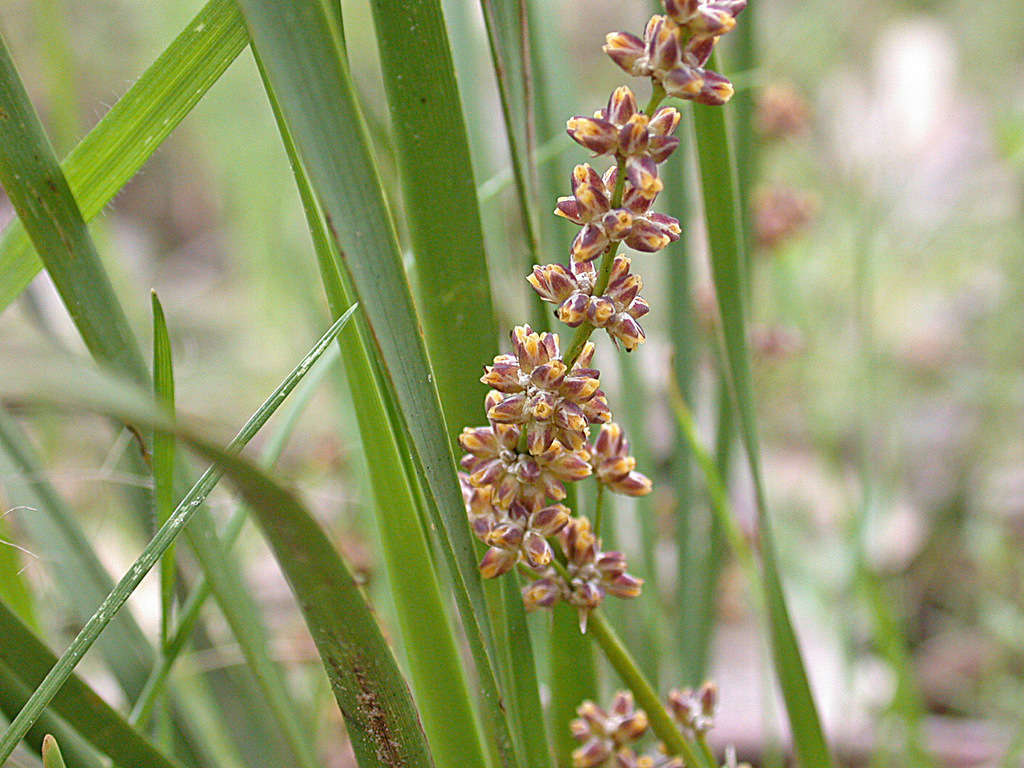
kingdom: Plantae
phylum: Tracheophyta
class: Liliopsida
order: Asparagales
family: Asparagaceae
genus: Lomandra
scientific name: Lomandra multiflora
